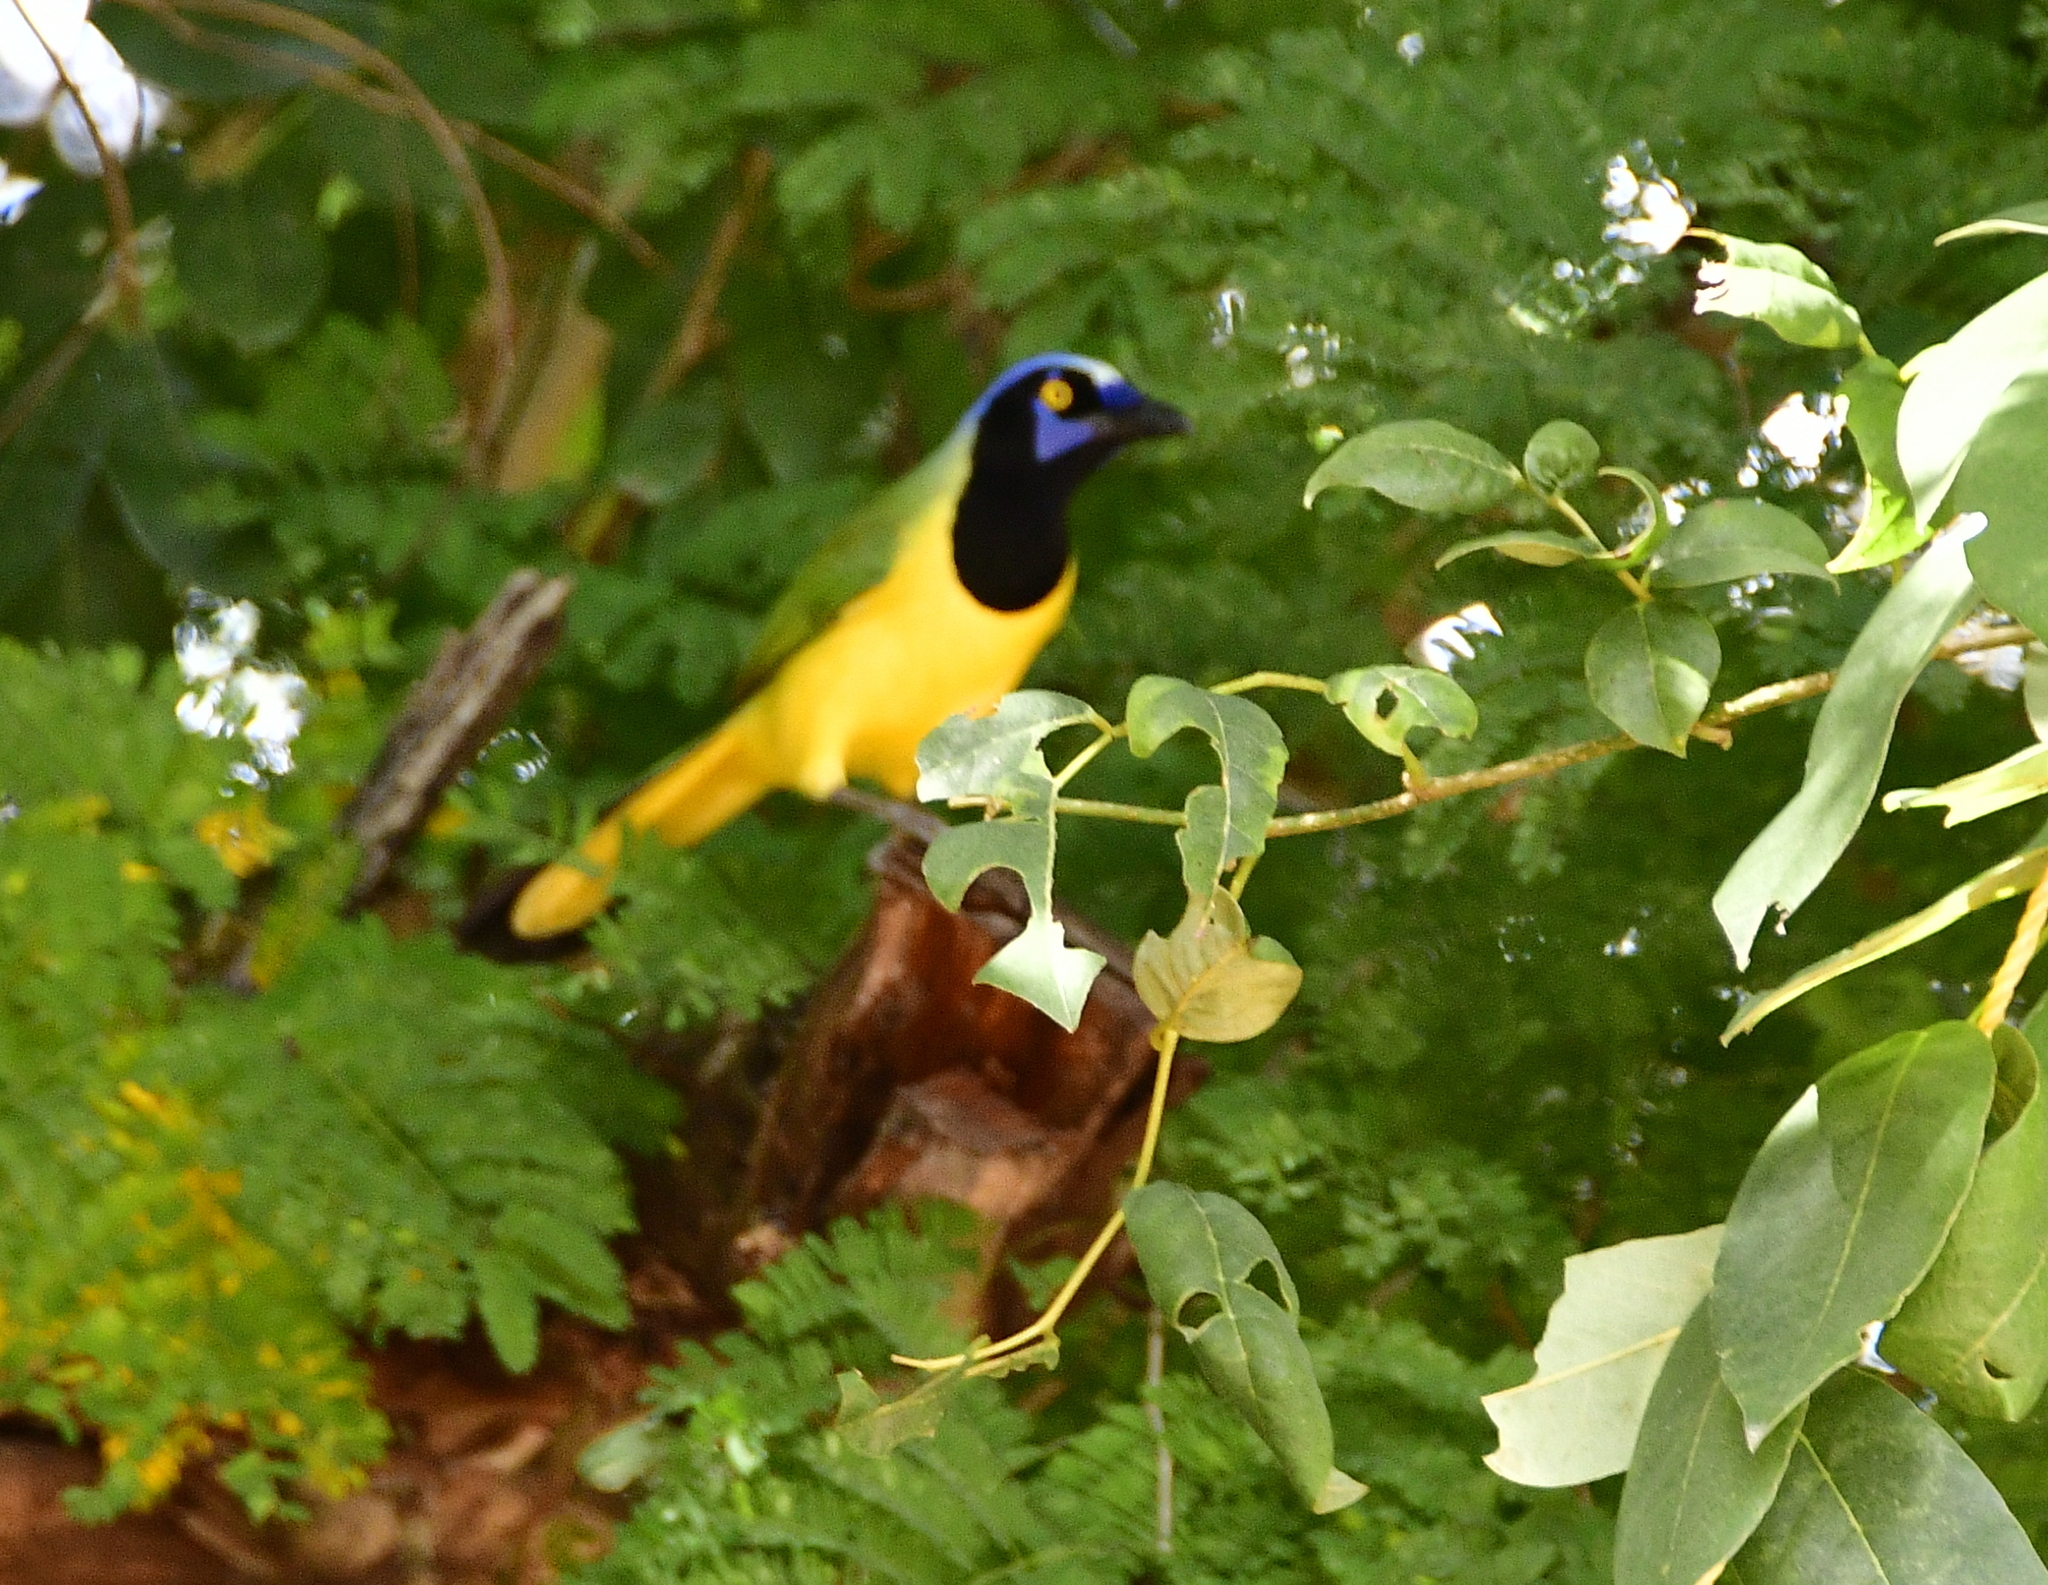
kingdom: Animalia
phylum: Chordata
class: Aves
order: Passeriformes
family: Corvidae
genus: Cyanocorax
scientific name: Cyanocorax yncas
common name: Green jay
